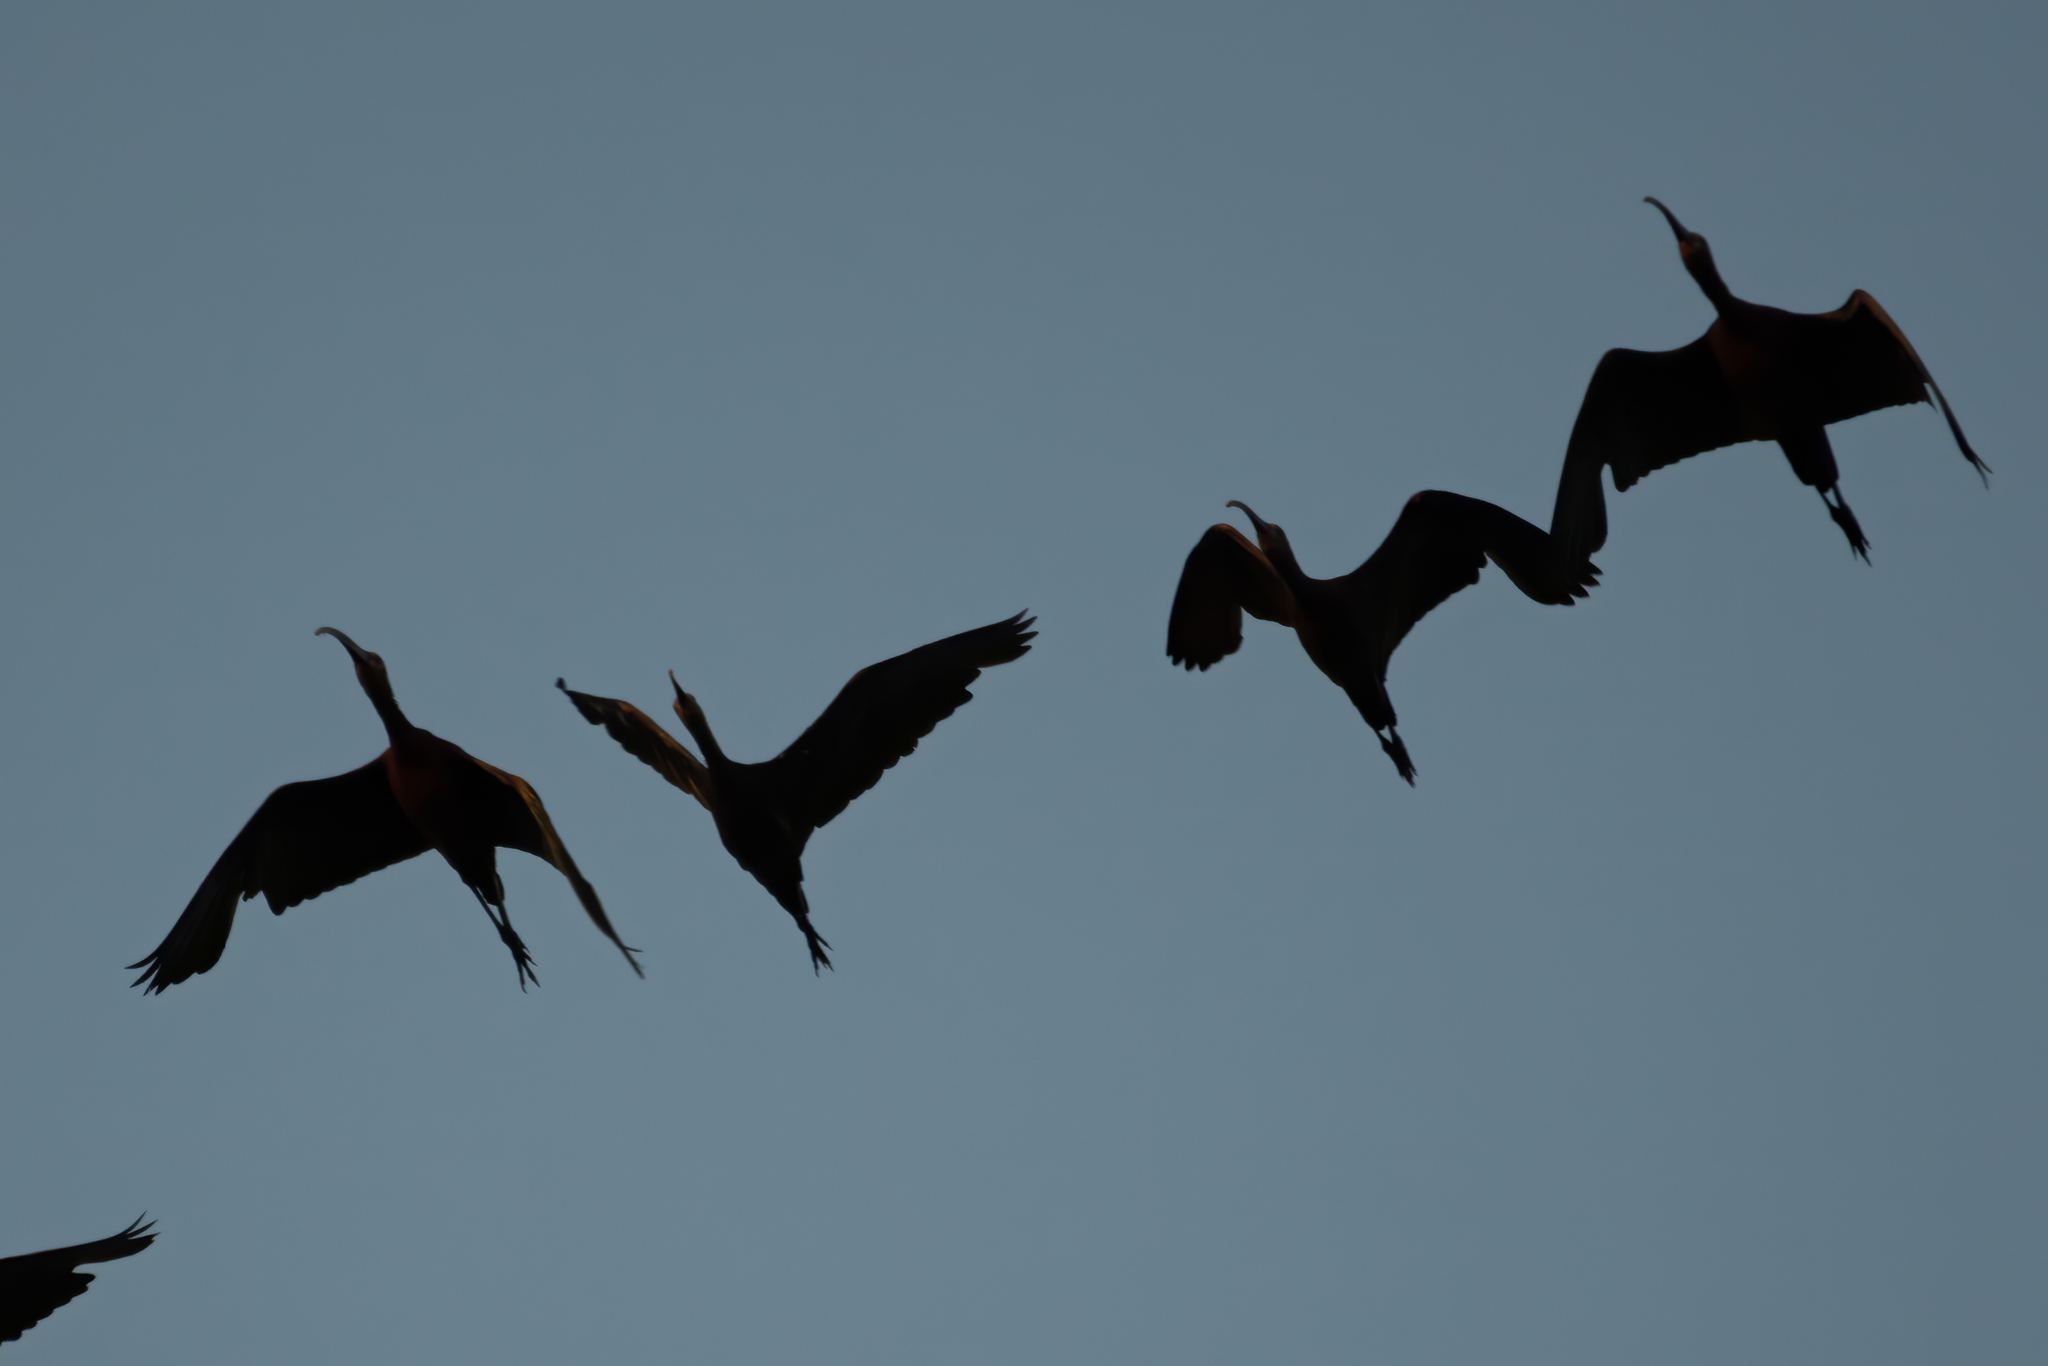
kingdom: Animalia
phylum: Chordata
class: Aves
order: Pelecaniformes
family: Threskiornithidae
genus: Plegadis
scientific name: Plegadis chihi
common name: White-faced ibis
